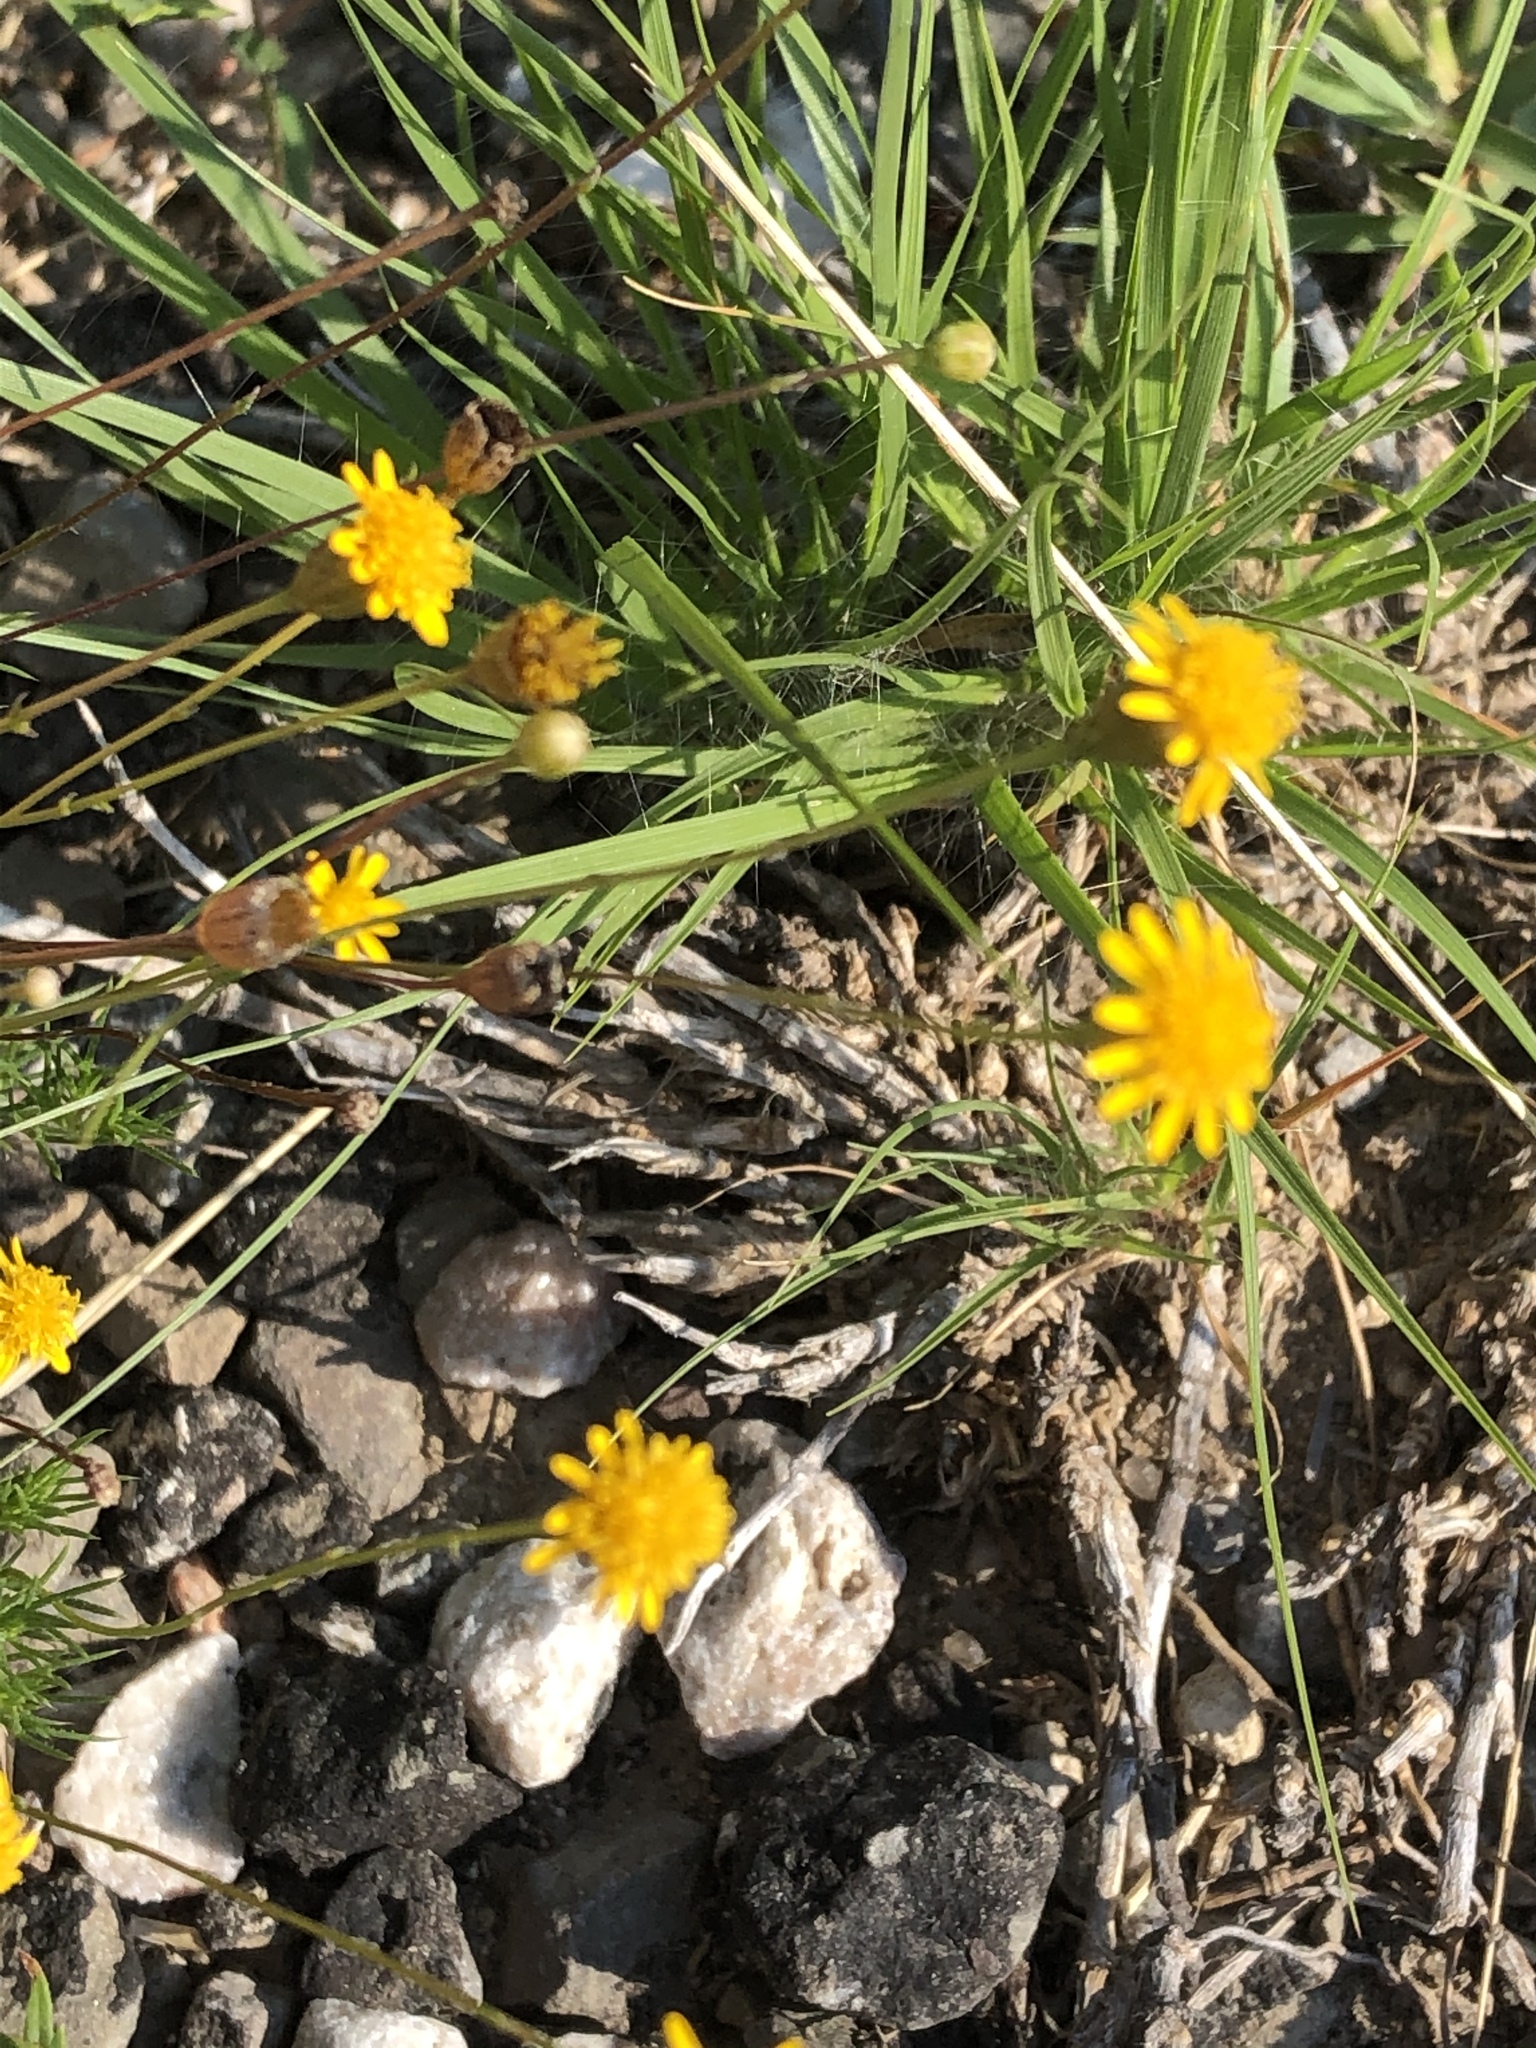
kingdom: Plantae
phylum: Tracheophyta
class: Magnoliopsida
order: Asterales
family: Asteraceae
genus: Thymophylla
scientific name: Thymophylla tenuiloba
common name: Dahlberg's daisy
